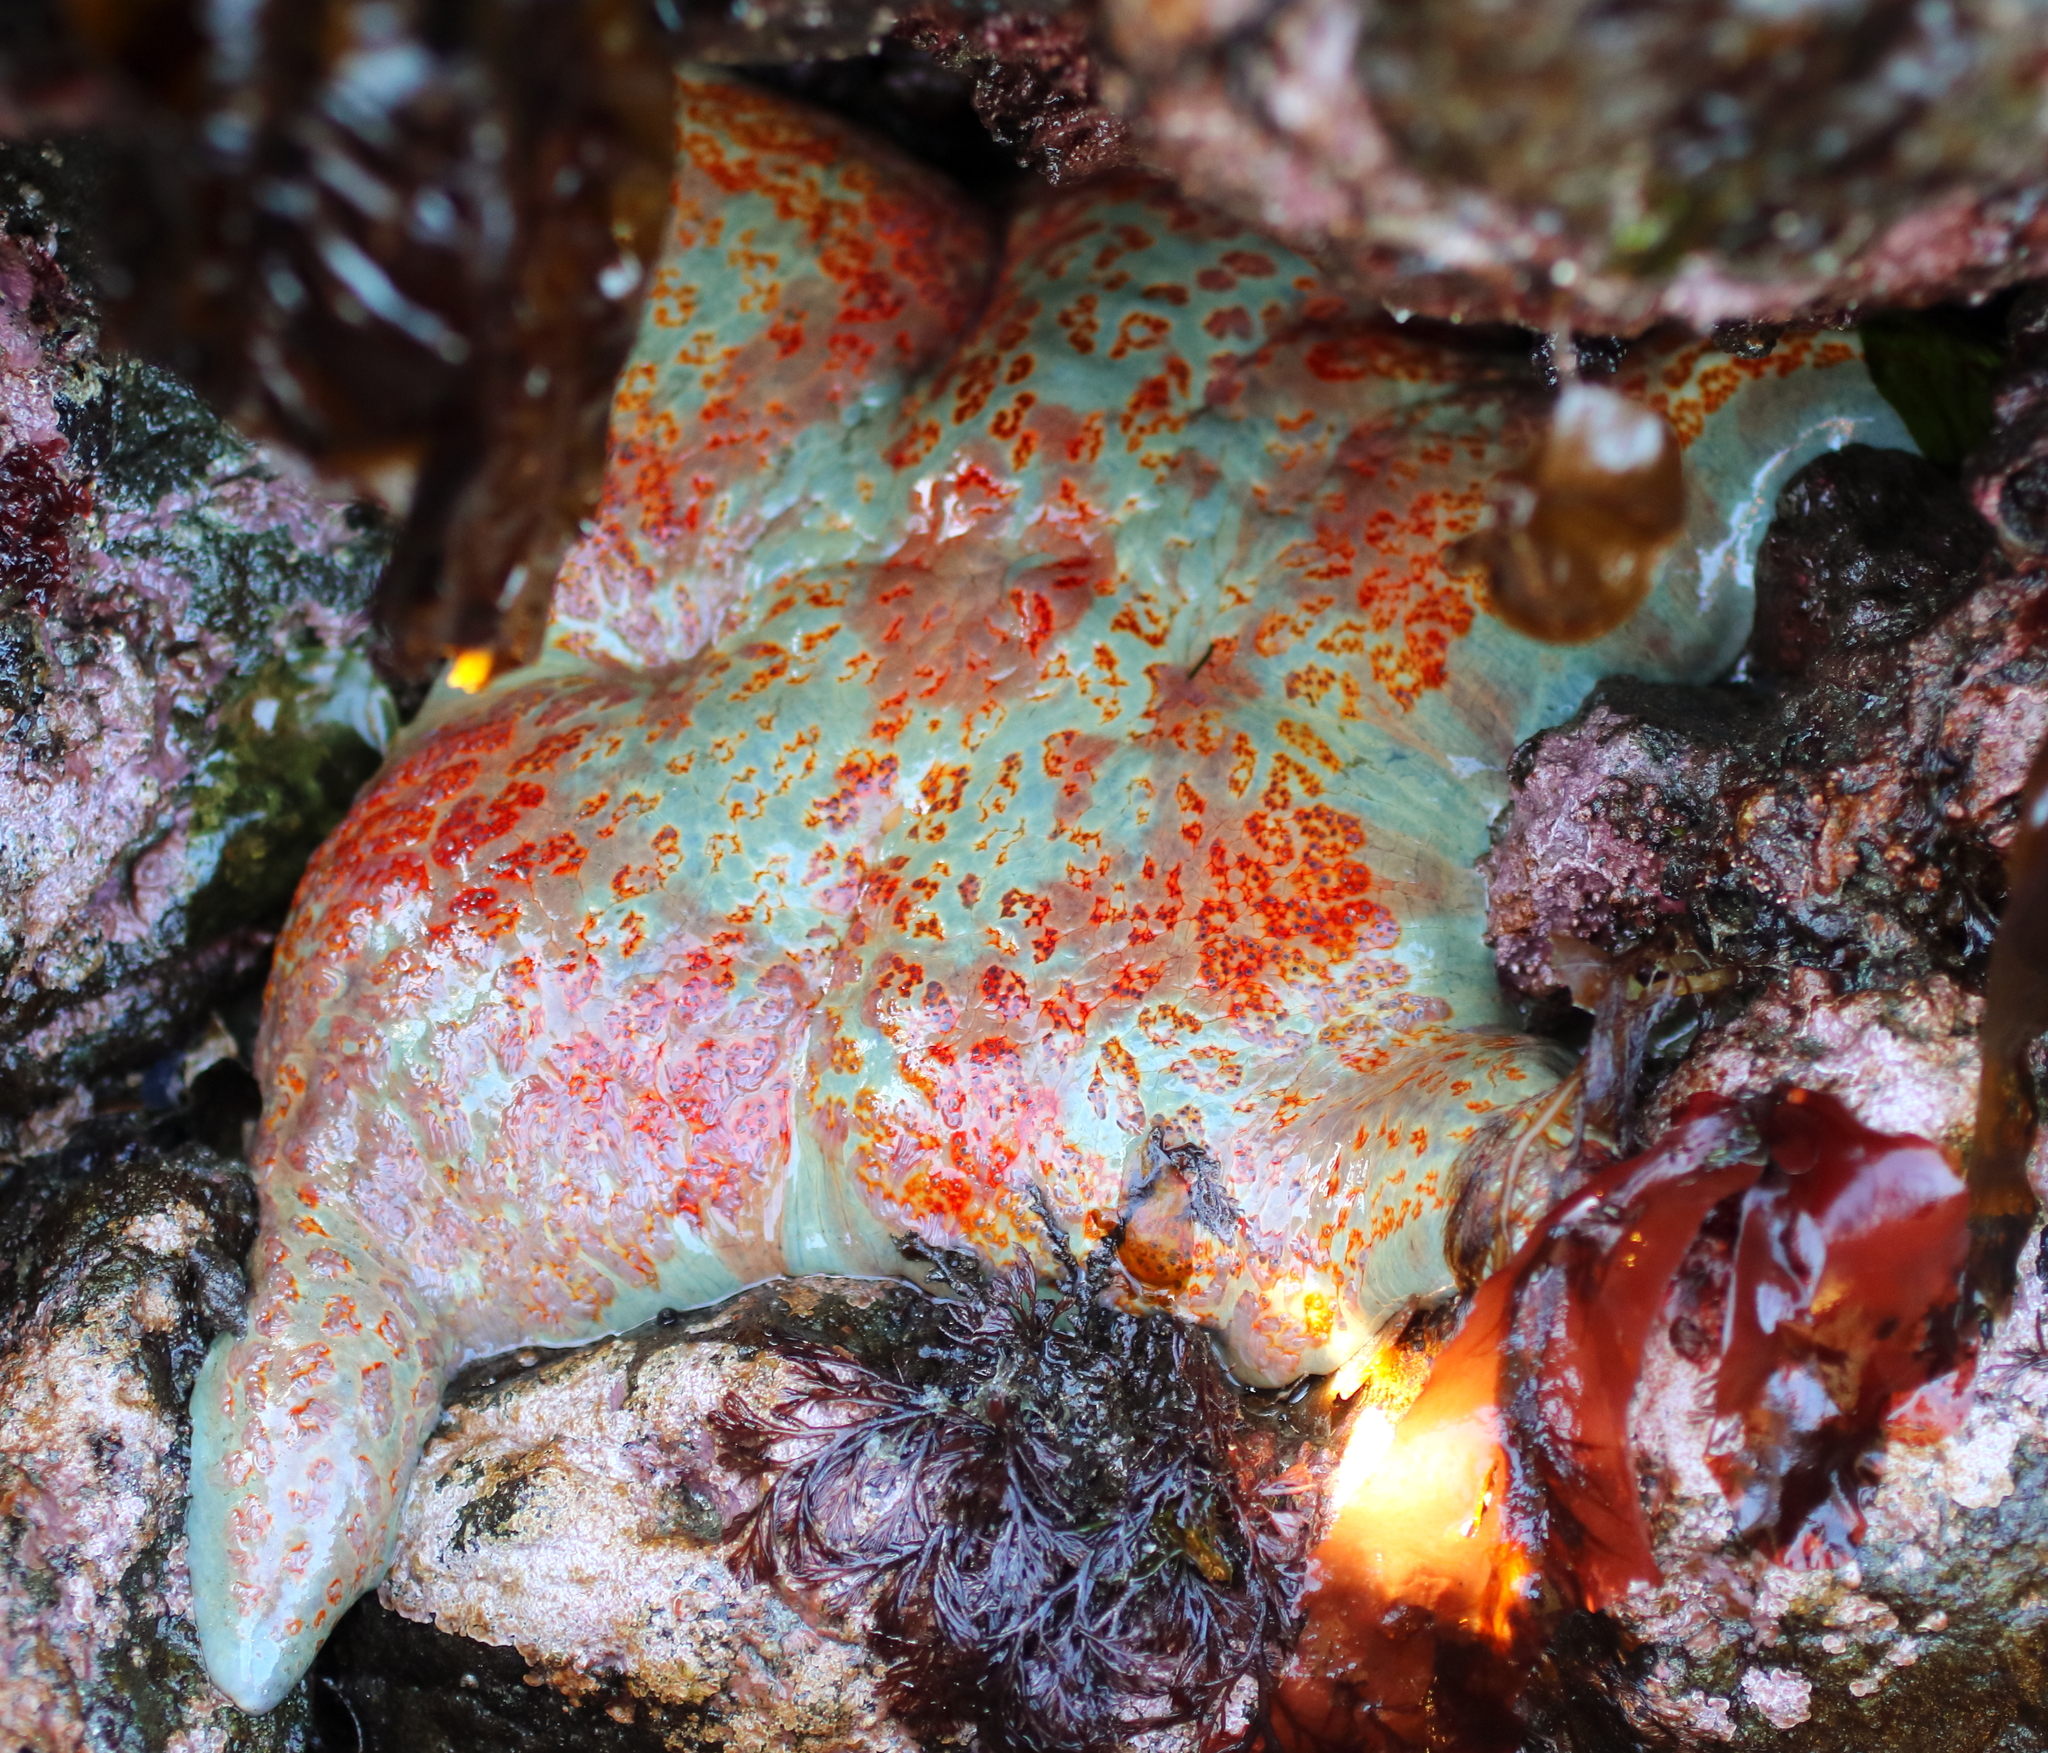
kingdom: Animalia
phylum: Echinodermata
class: Asteroidea
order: Valvatida
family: Asteropseidae
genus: Dermasterias
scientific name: Dermasterias imbricata
